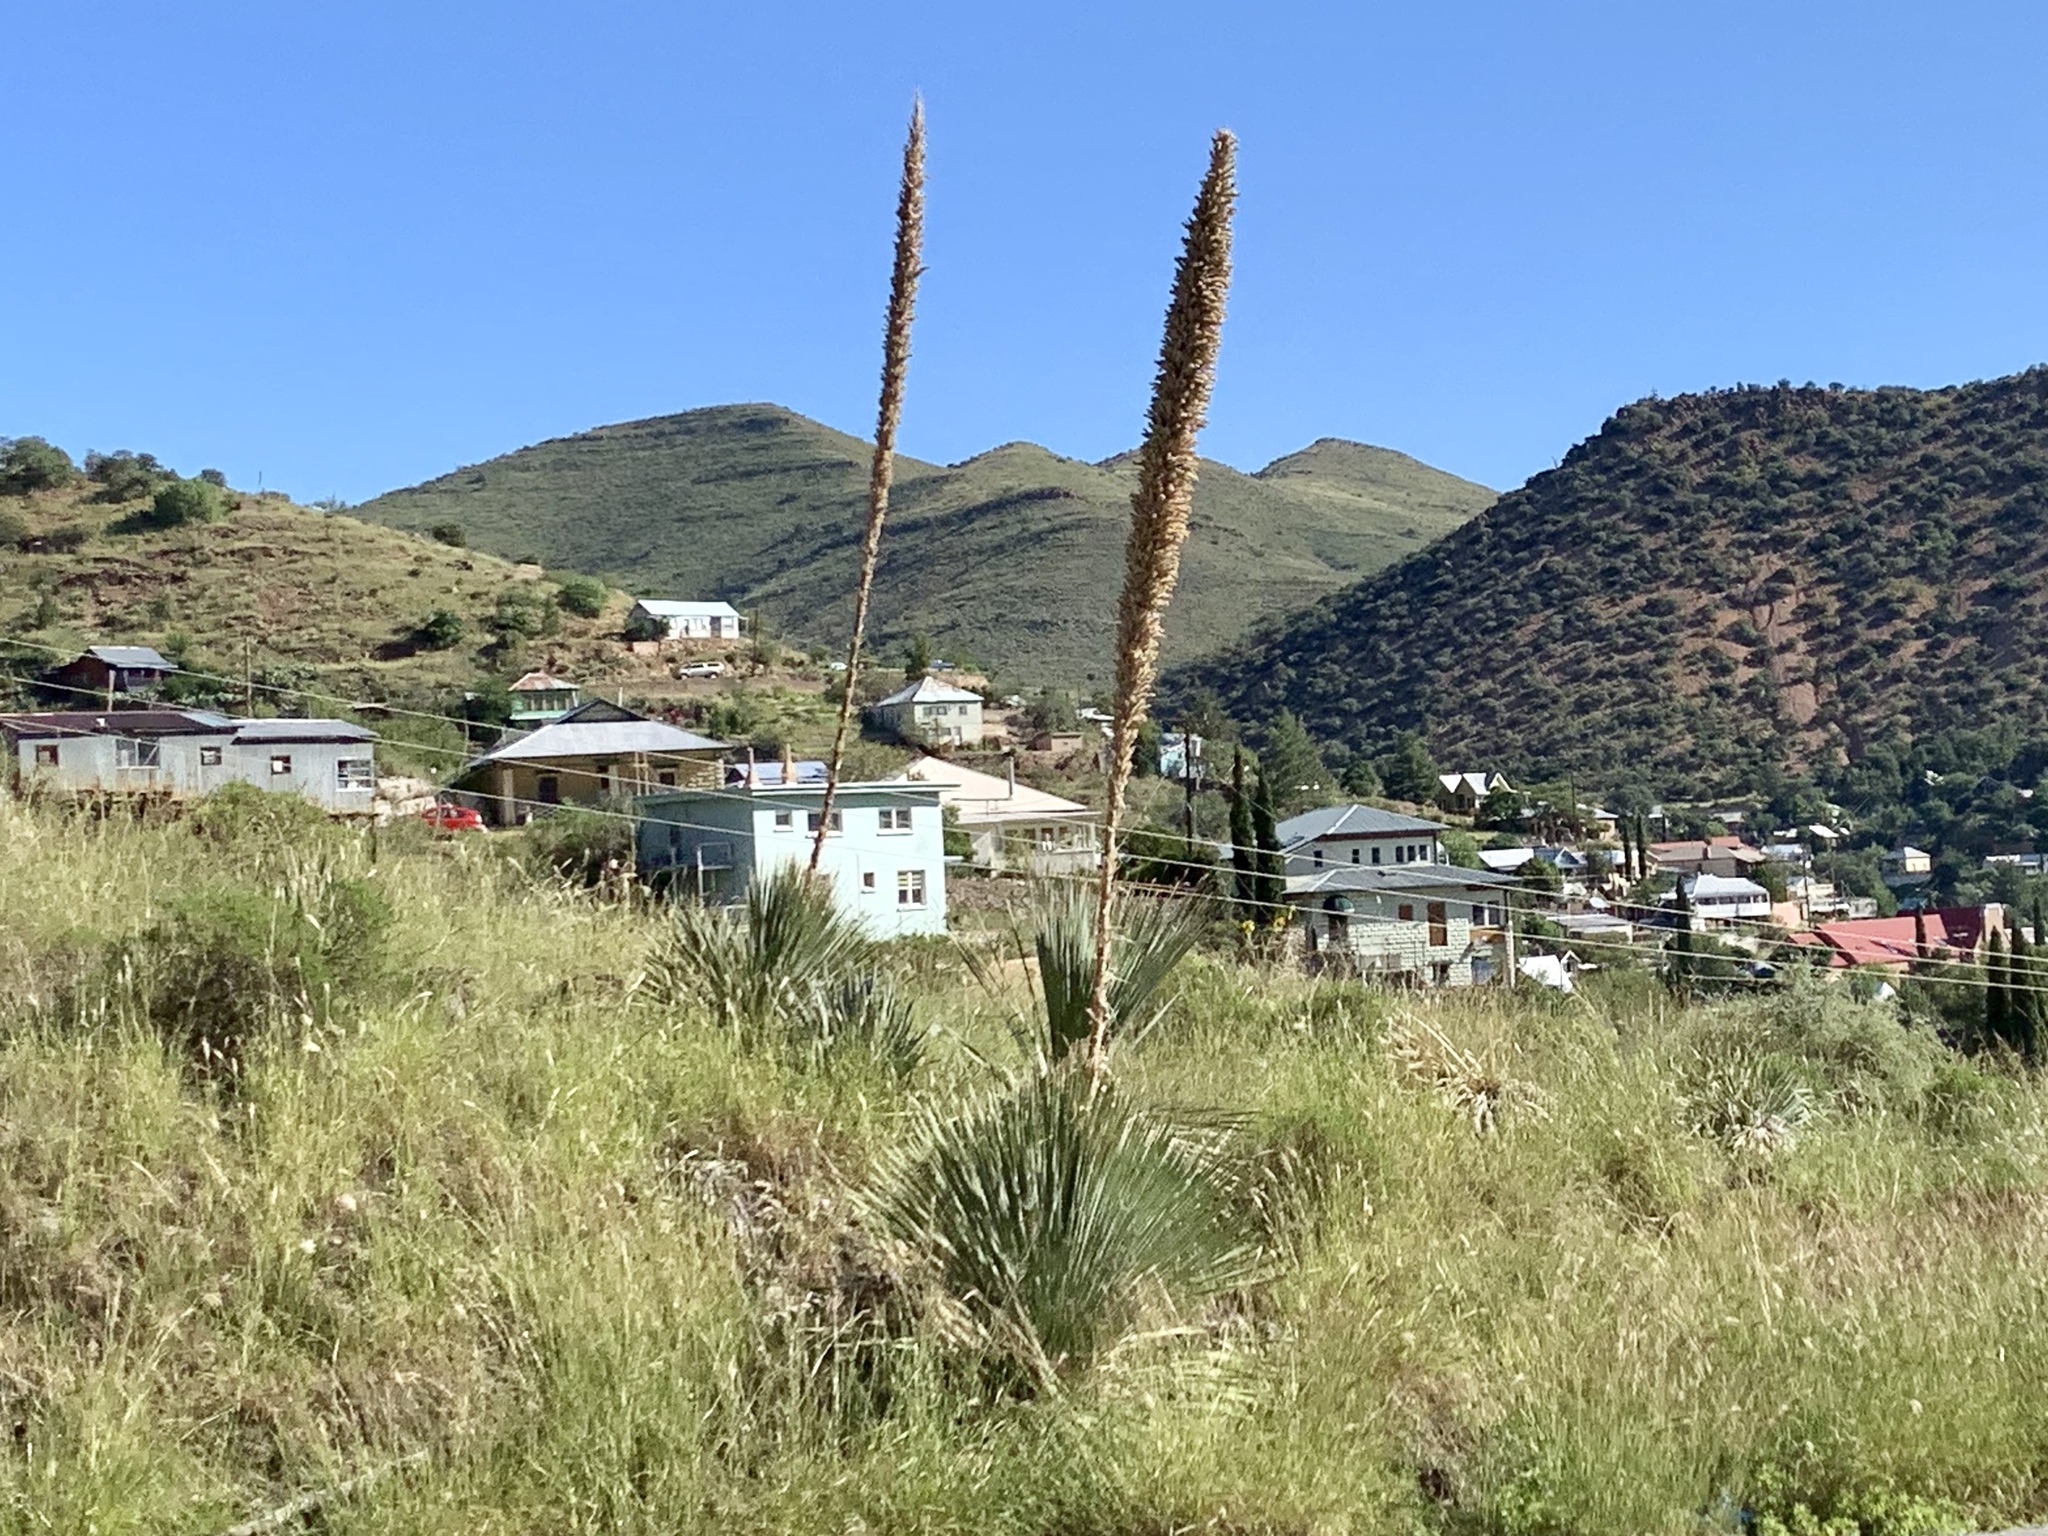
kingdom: Plantae
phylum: Tracheophyta
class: Liliopsida
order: Asparagales
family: Asparagaceae
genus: Dasylirion
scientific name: Dasylirion wheeleri
